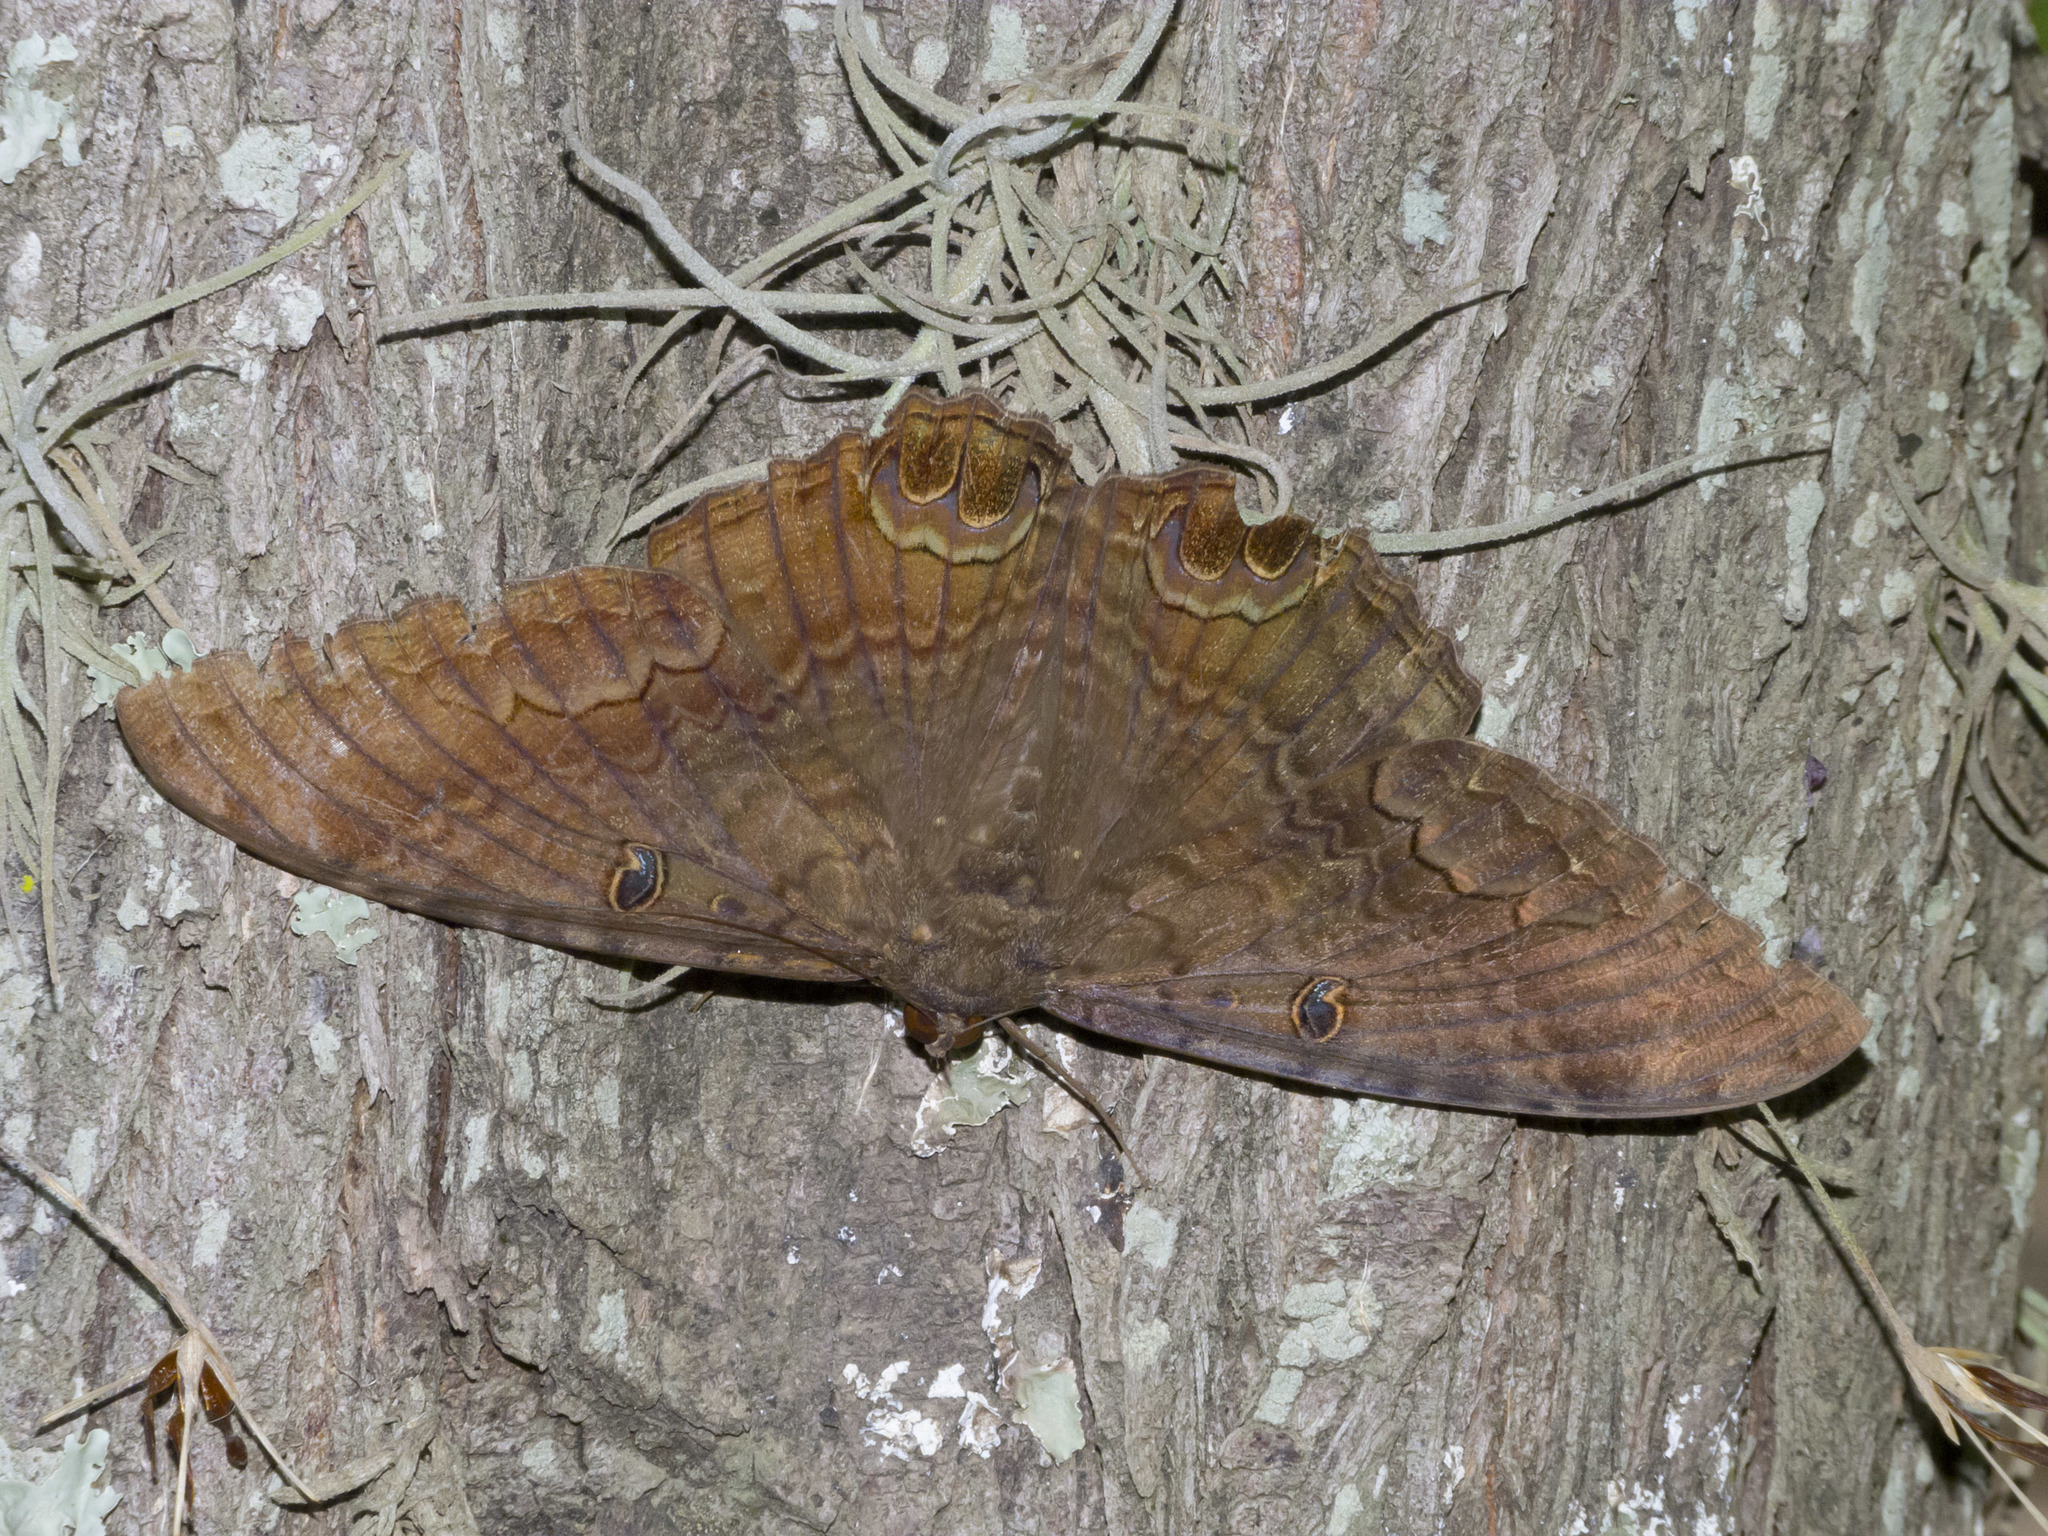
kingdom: Animalia
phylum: Arthropoda
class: Insecta
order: Lepidoptera
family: Erebidae
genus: Ascalapha
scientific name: Ascalapha odorata
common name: Black witch
